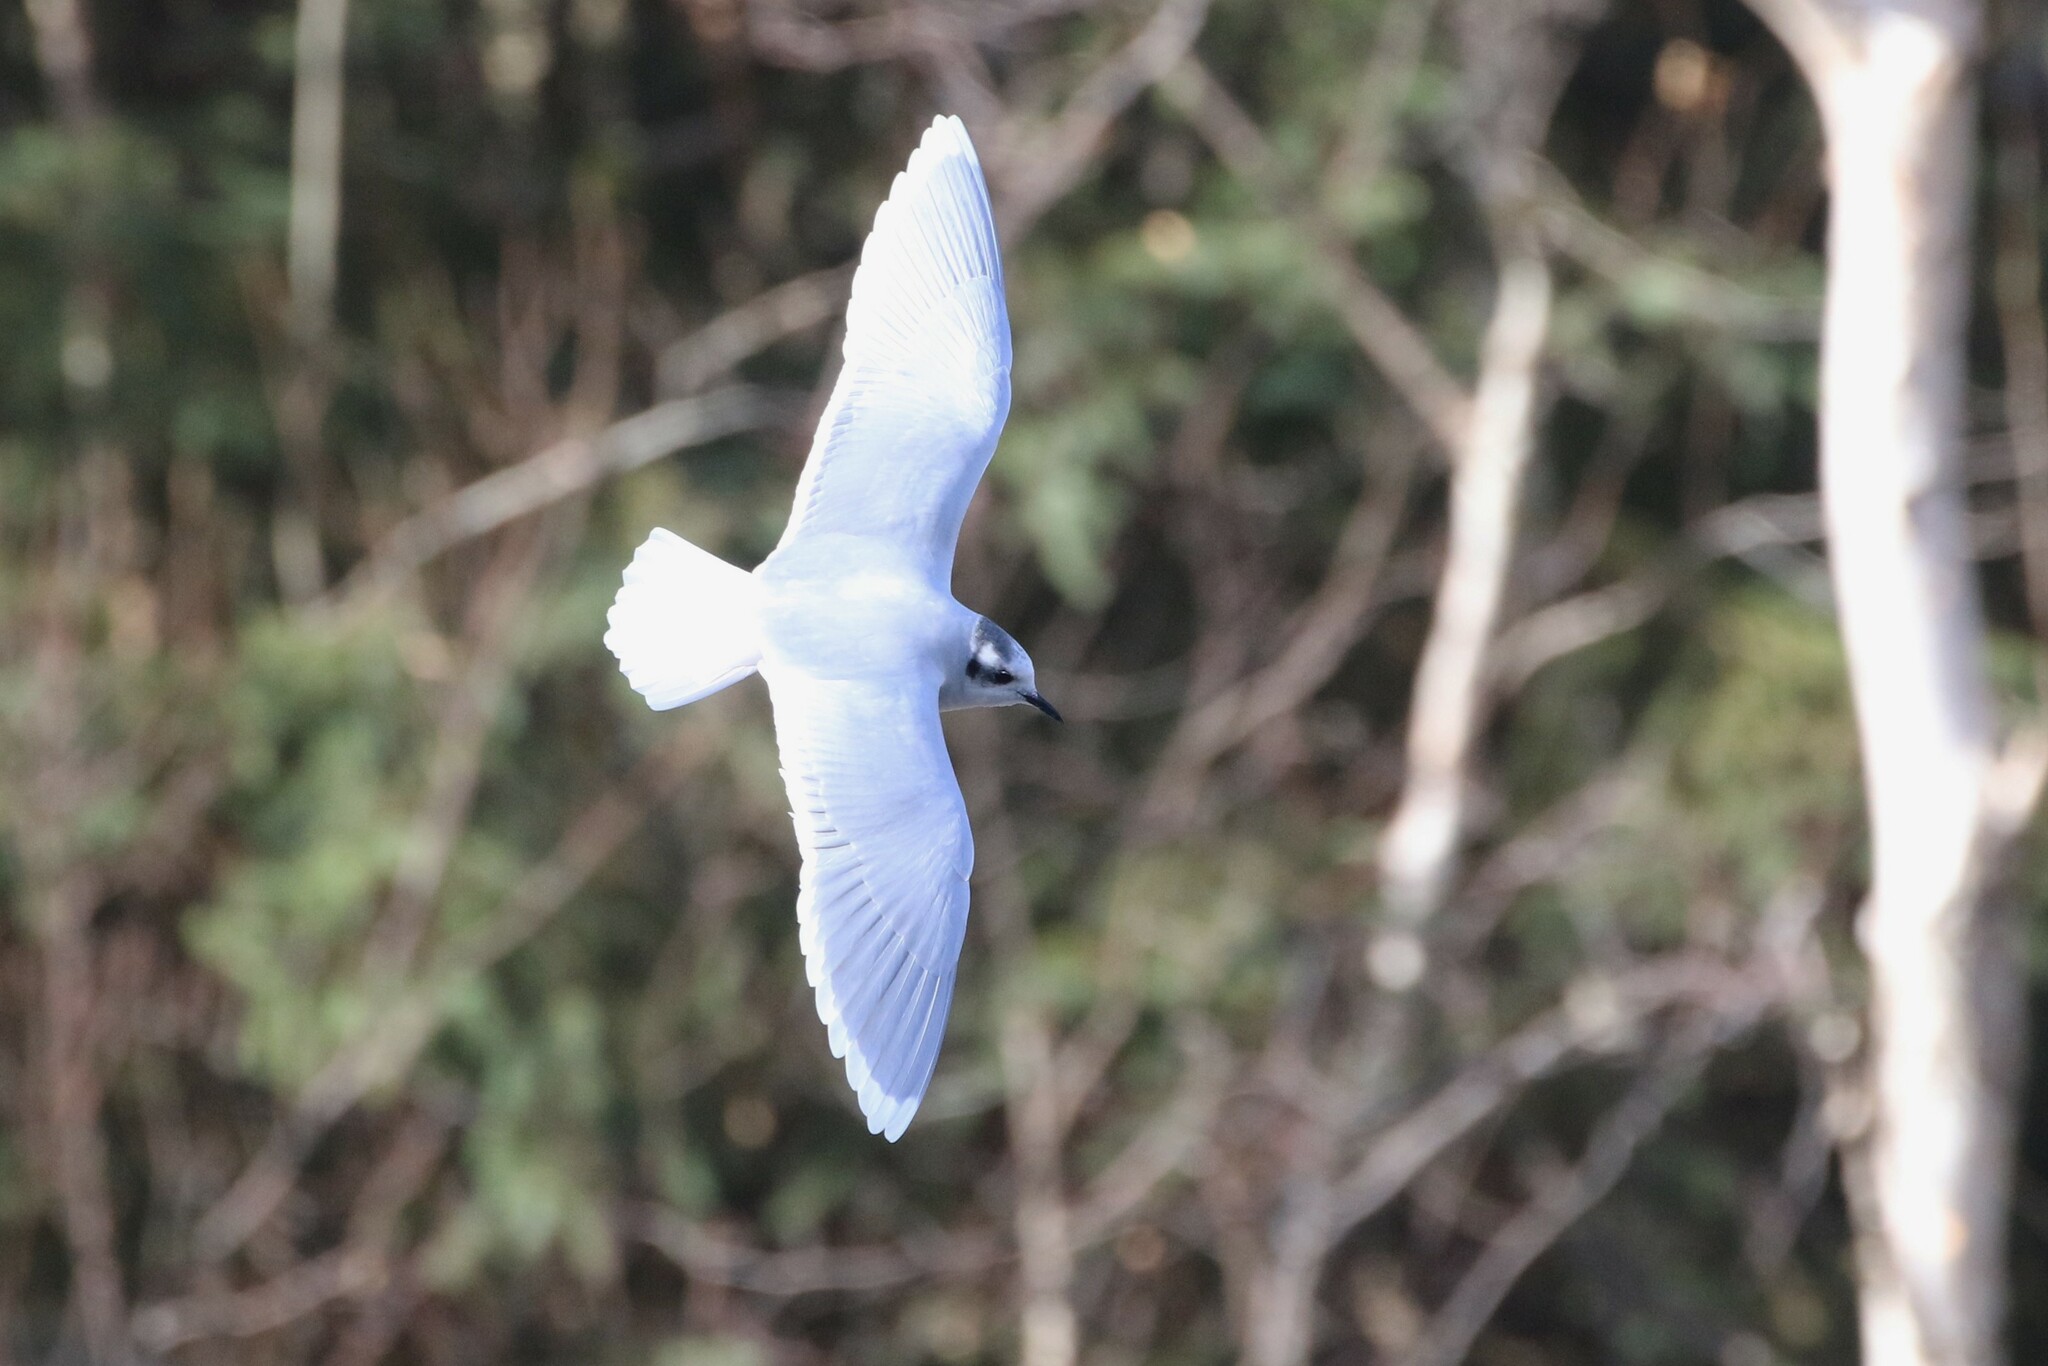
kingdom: Animalia
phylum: Chordata
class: Aves
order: Charadriiformes
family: Laridae
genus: Hydrocoloeus
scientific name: Hydrocoloeus minutus
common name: Little gull
